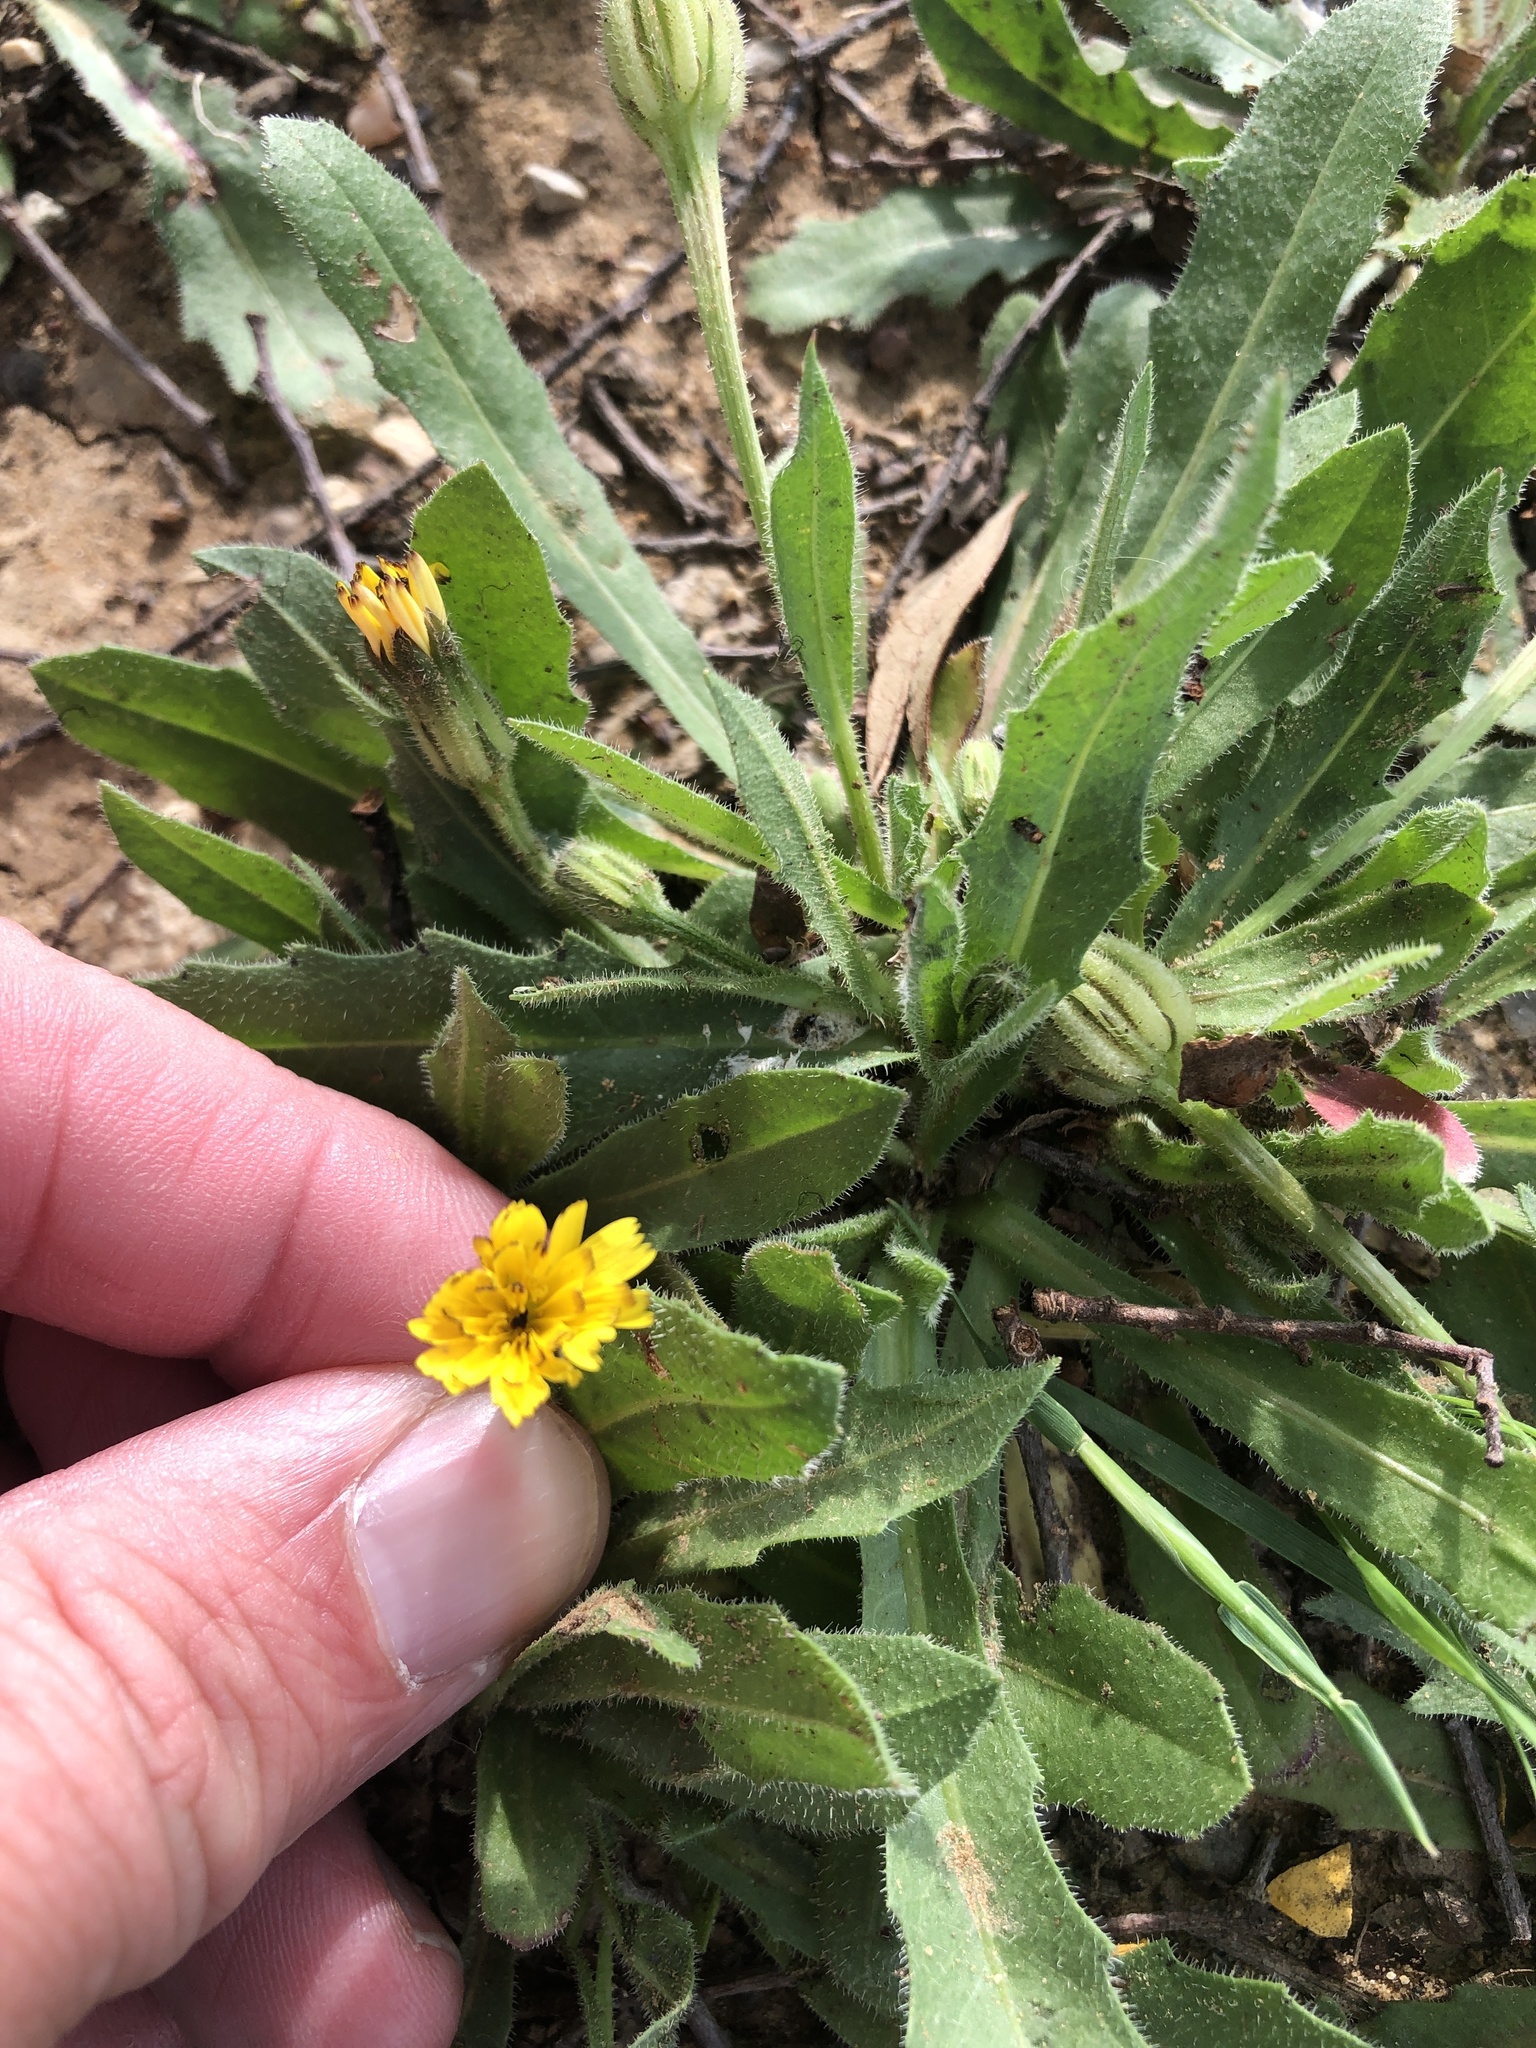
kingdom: Plantae
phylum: Tracheophyta
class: Magnoliopsida
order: Asterales
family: Asteraceae
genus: Hedypnois
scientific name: Hedypnois rhagadioloides
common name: Cretan weed
